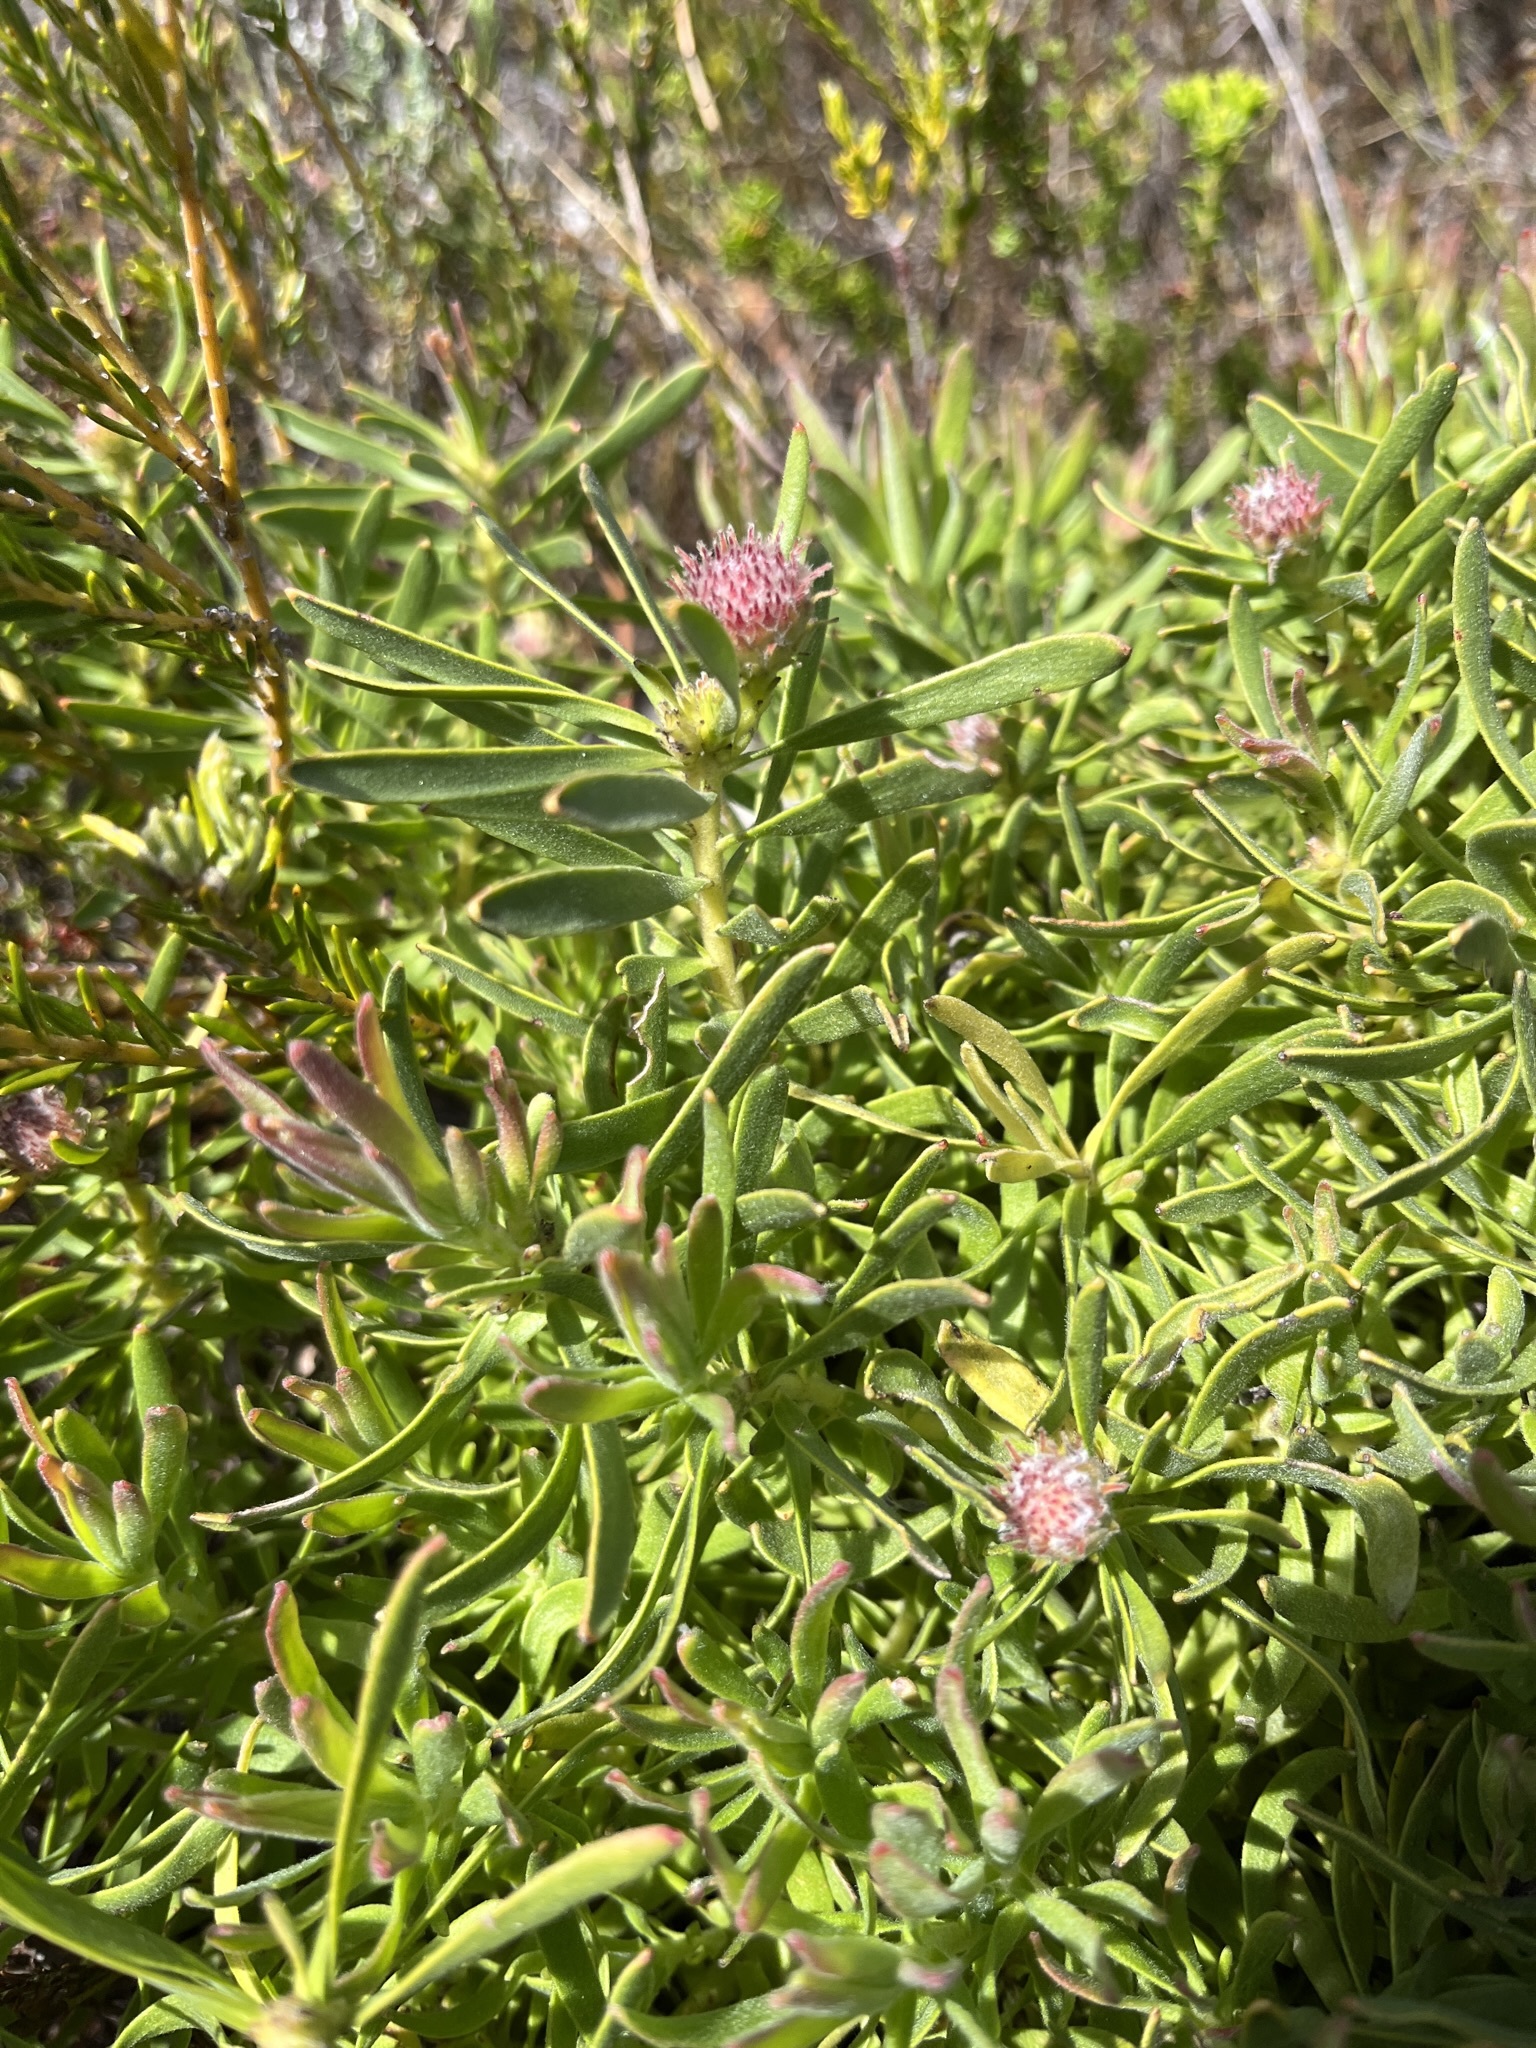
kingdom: Plantae
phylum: Tracheophyta
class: Magnoliopsida
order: Proteales
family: Proteaceae
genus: Leucospermum
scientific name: Leucospermum pedunculatum
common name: White-trailing pincushion
